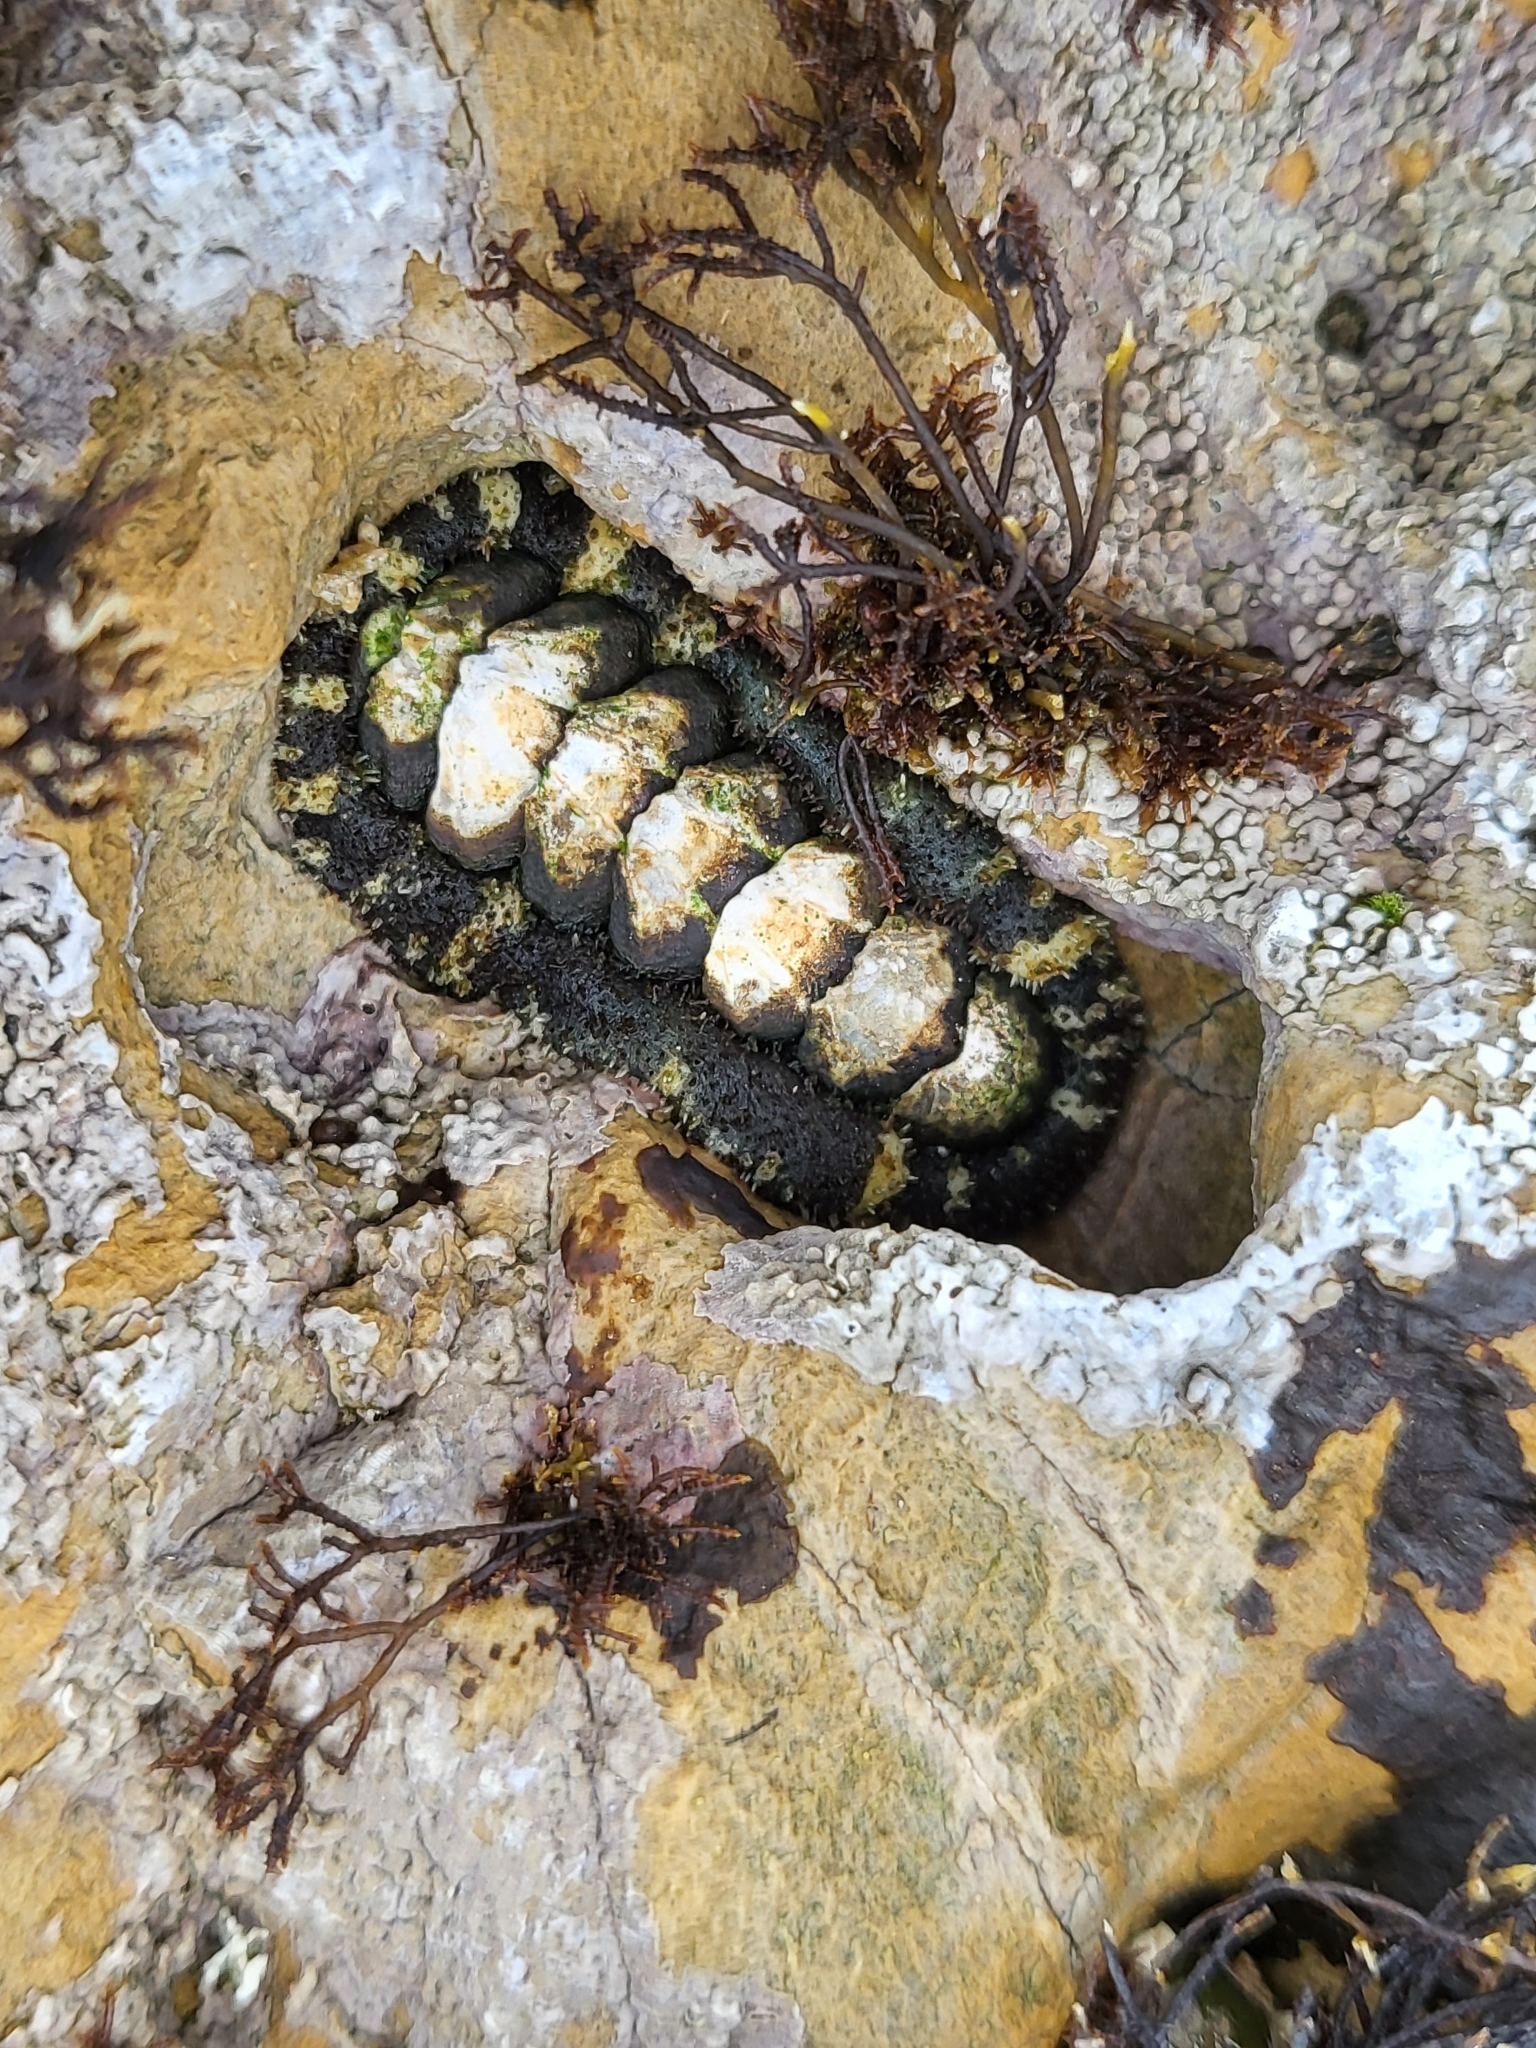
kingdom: Animalia
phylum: Mollusca
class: Polyplacophora
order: Chitonida
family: Tonicellidae
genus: Nuttallina
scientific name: Nuttallina californica
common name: California nuttall chiton
